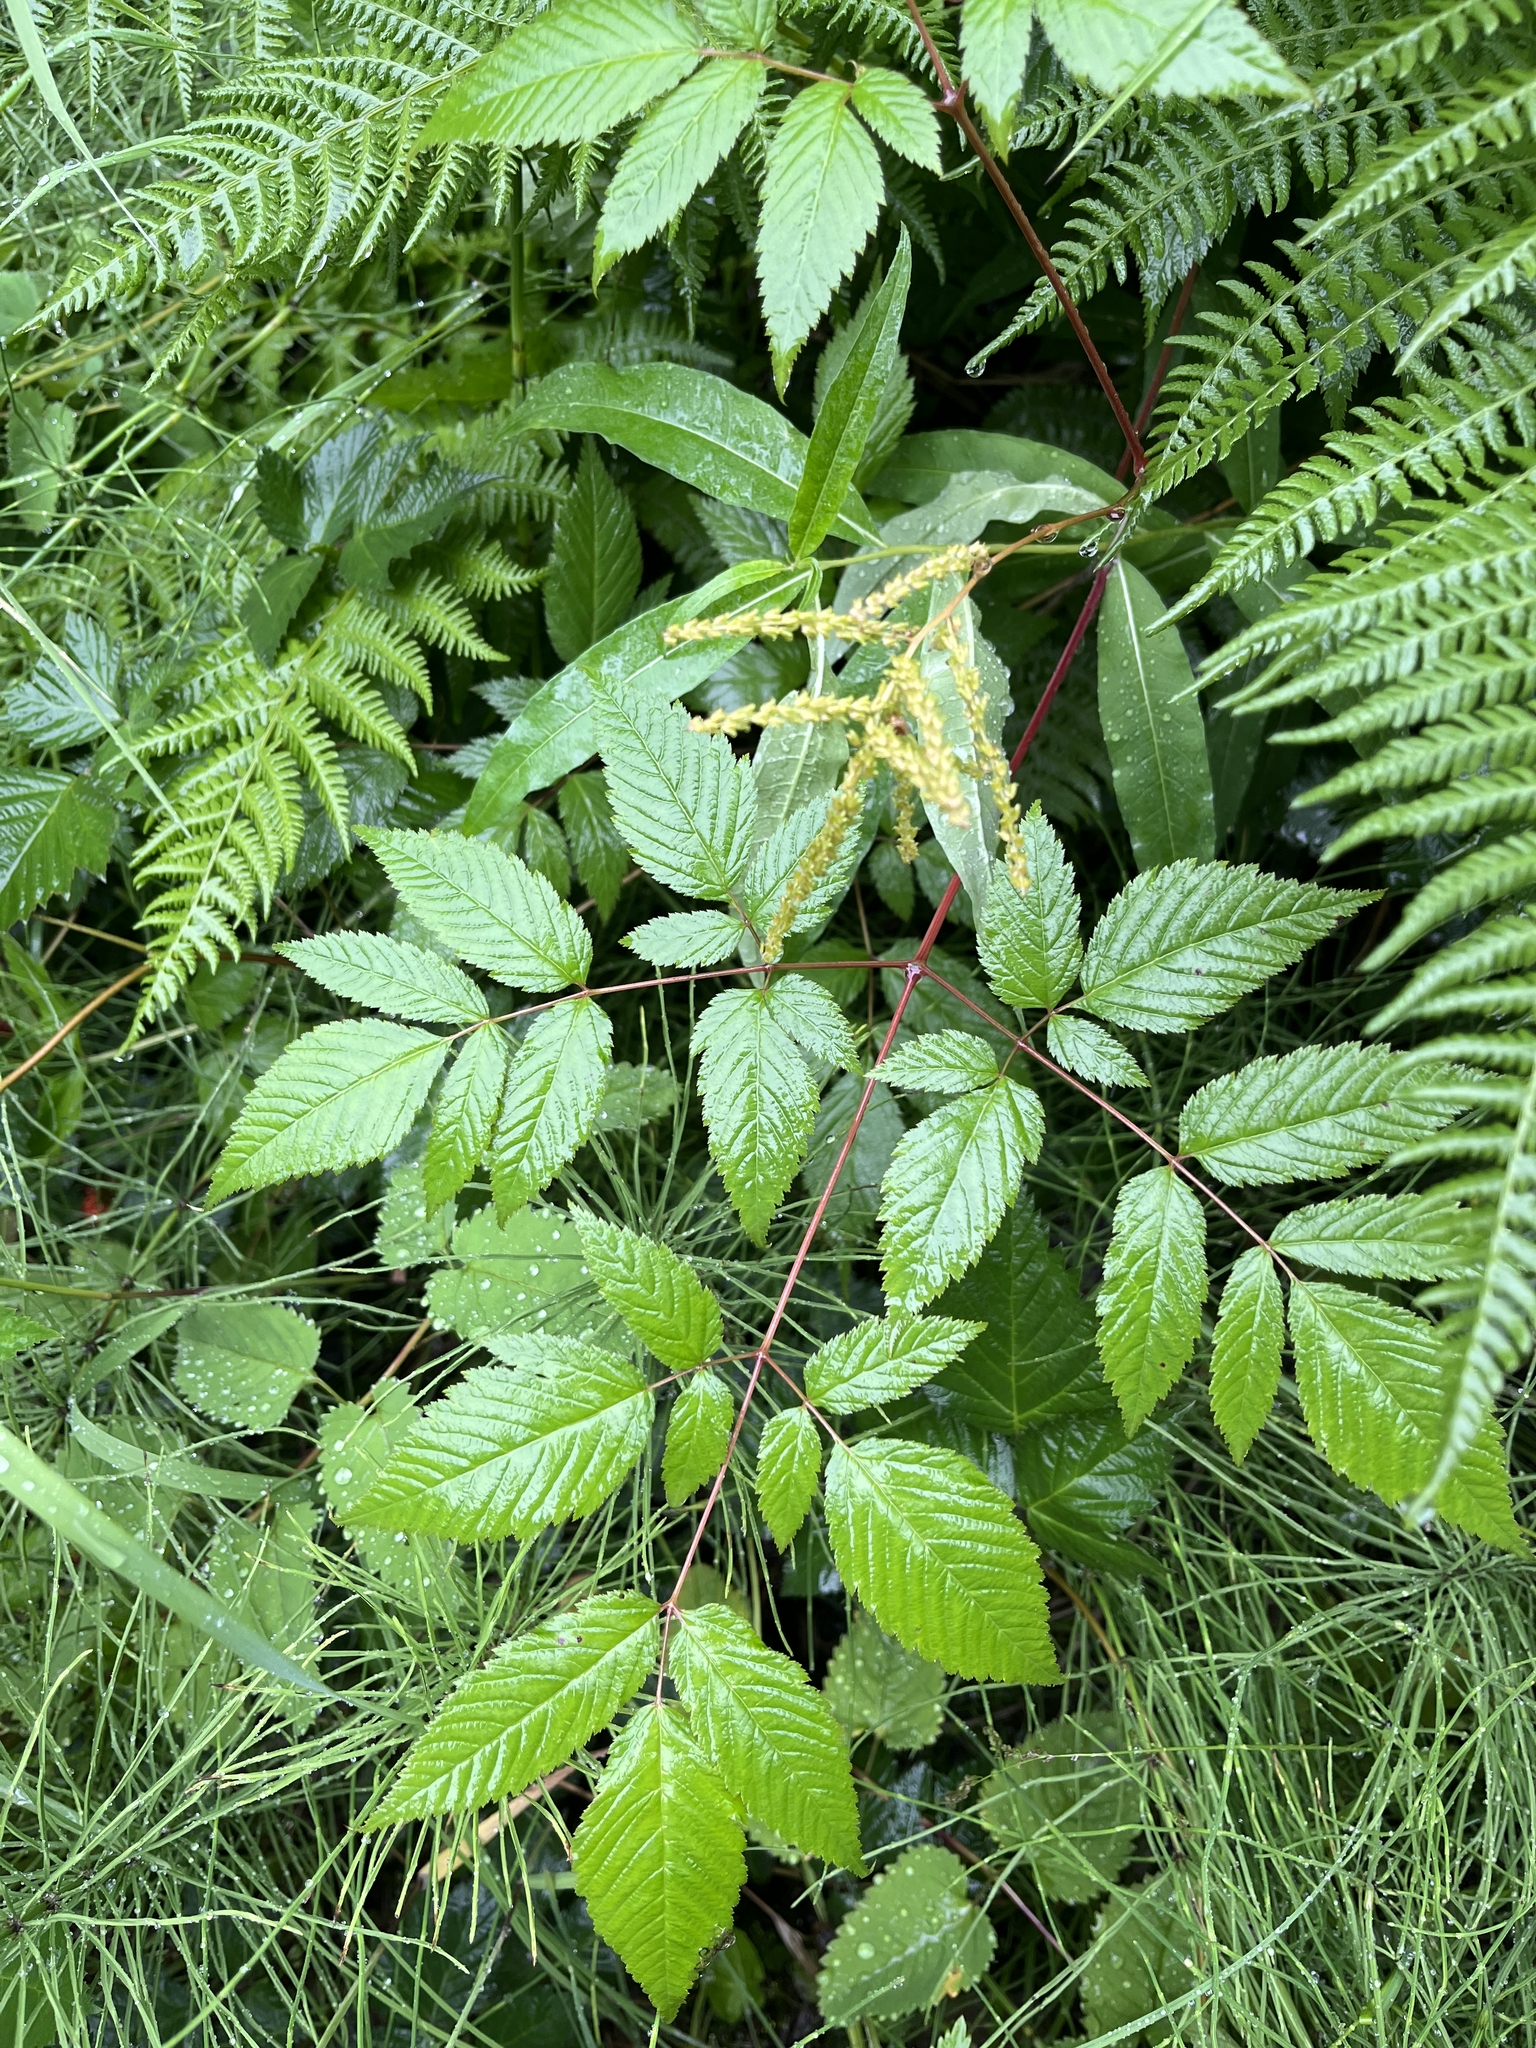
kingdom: Plantae
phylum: Tracheophyta
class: Magnoliopsida
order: Rosales
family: Rosaceae
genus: Aruncus
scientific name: Aruncus dioicus
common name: Buck's-beard
